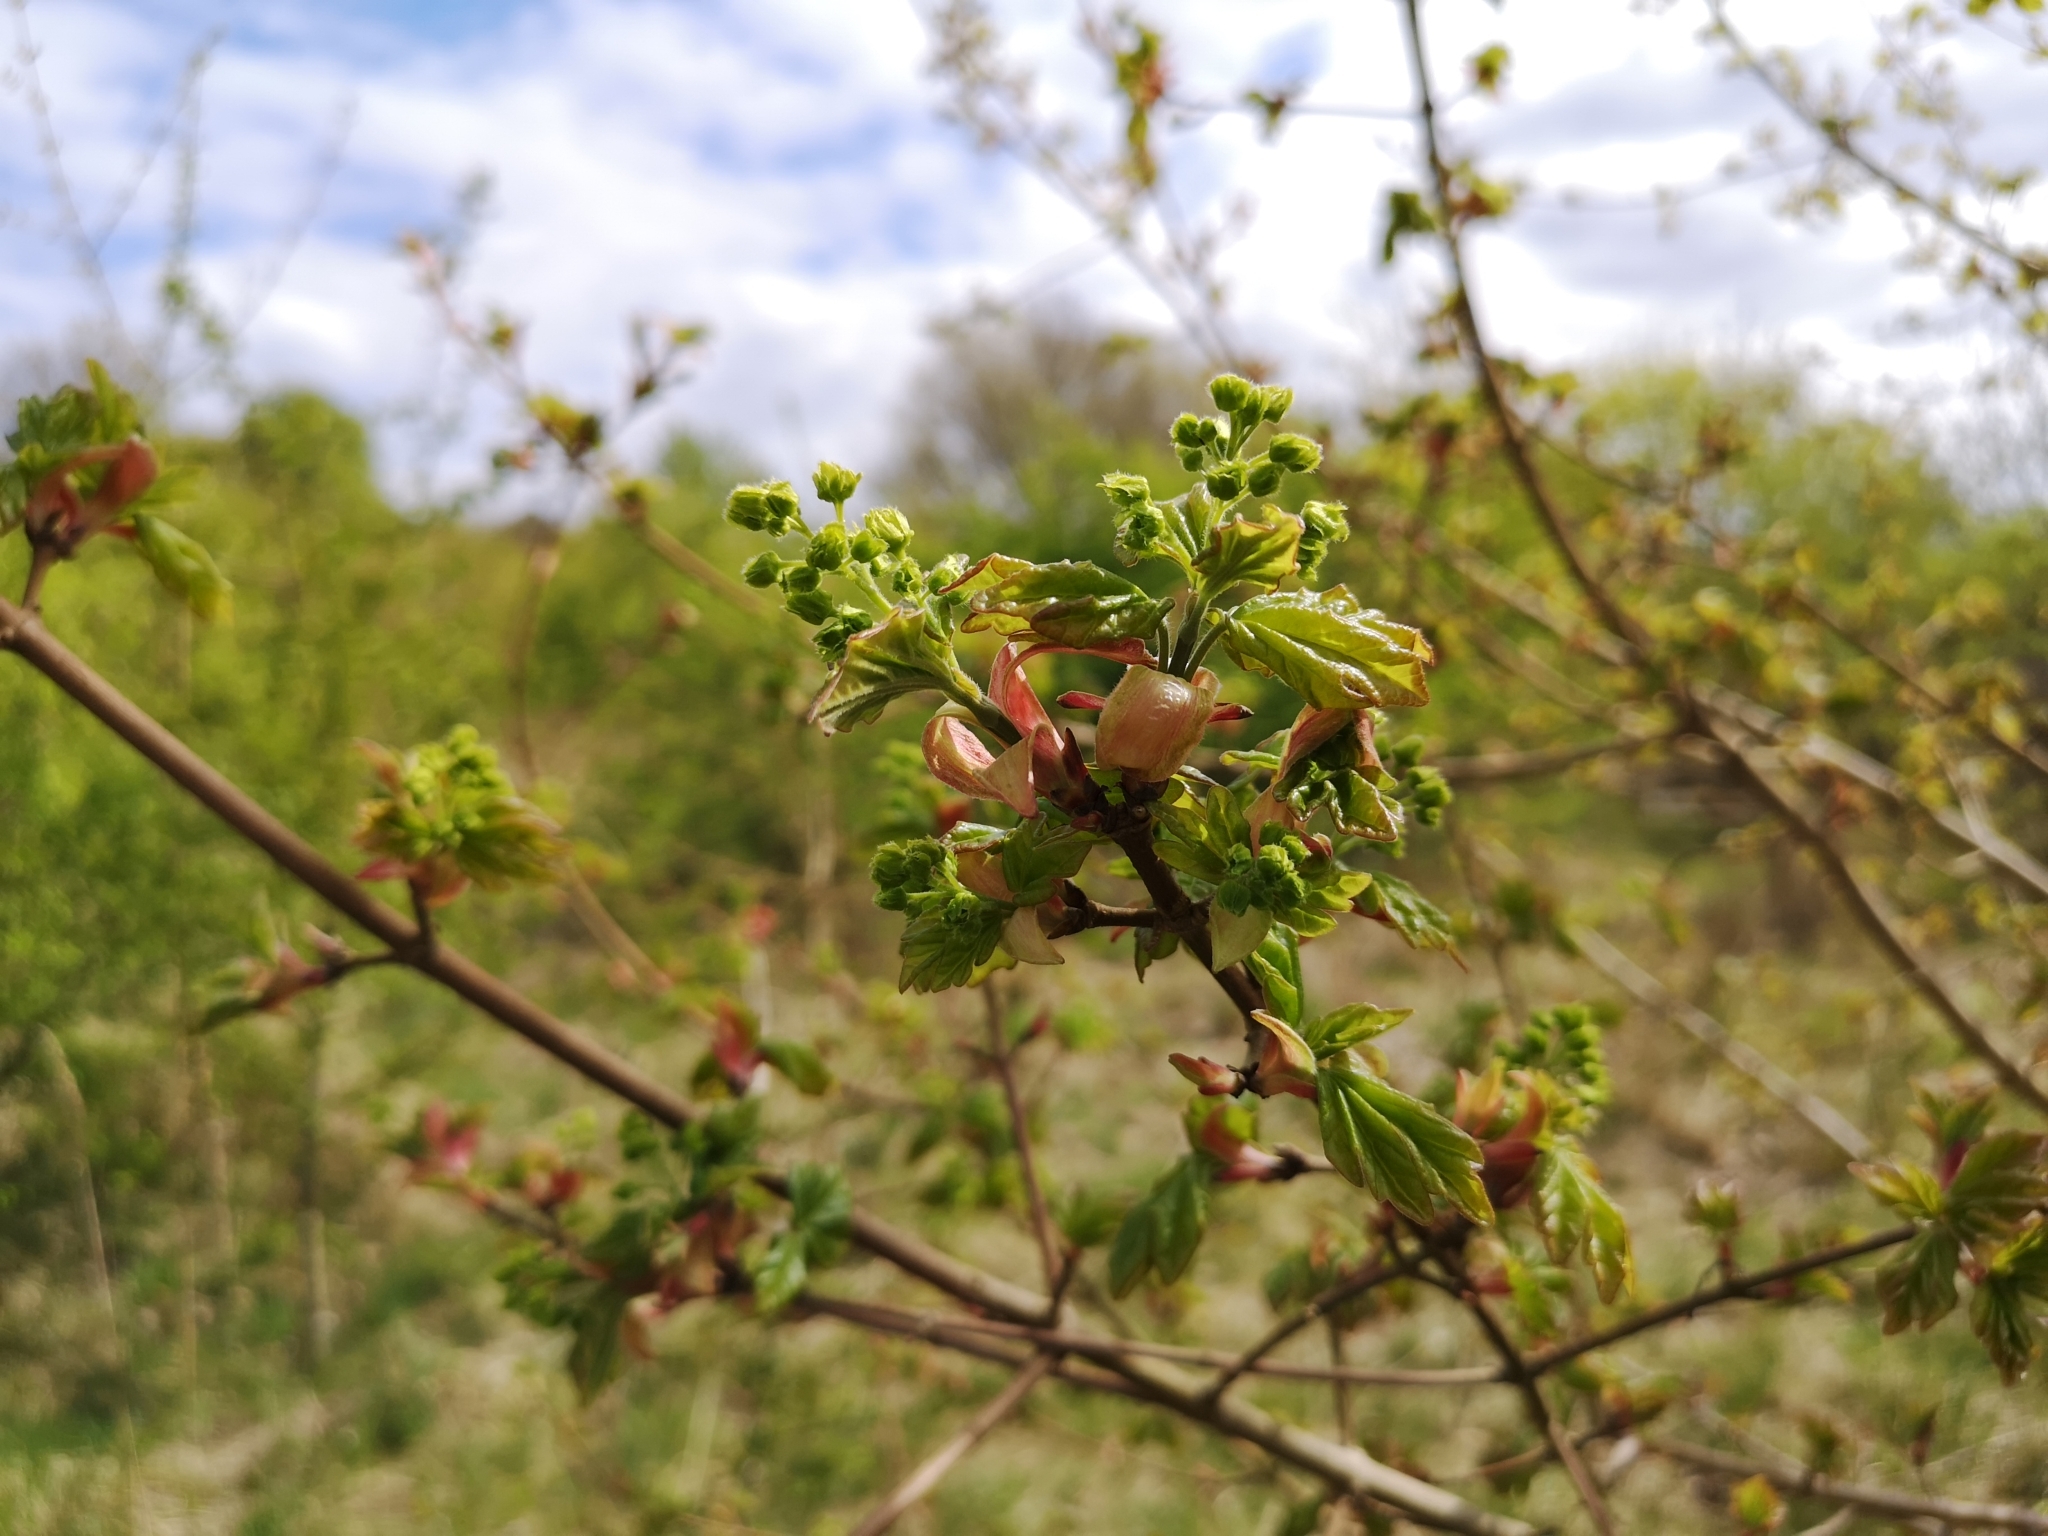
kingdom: Plantae
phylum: Tracheophyta
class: Magnoliopsida
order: Sapindales
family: Sapindaceae
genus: Acer
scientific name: Acer campestre
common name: Field maple
